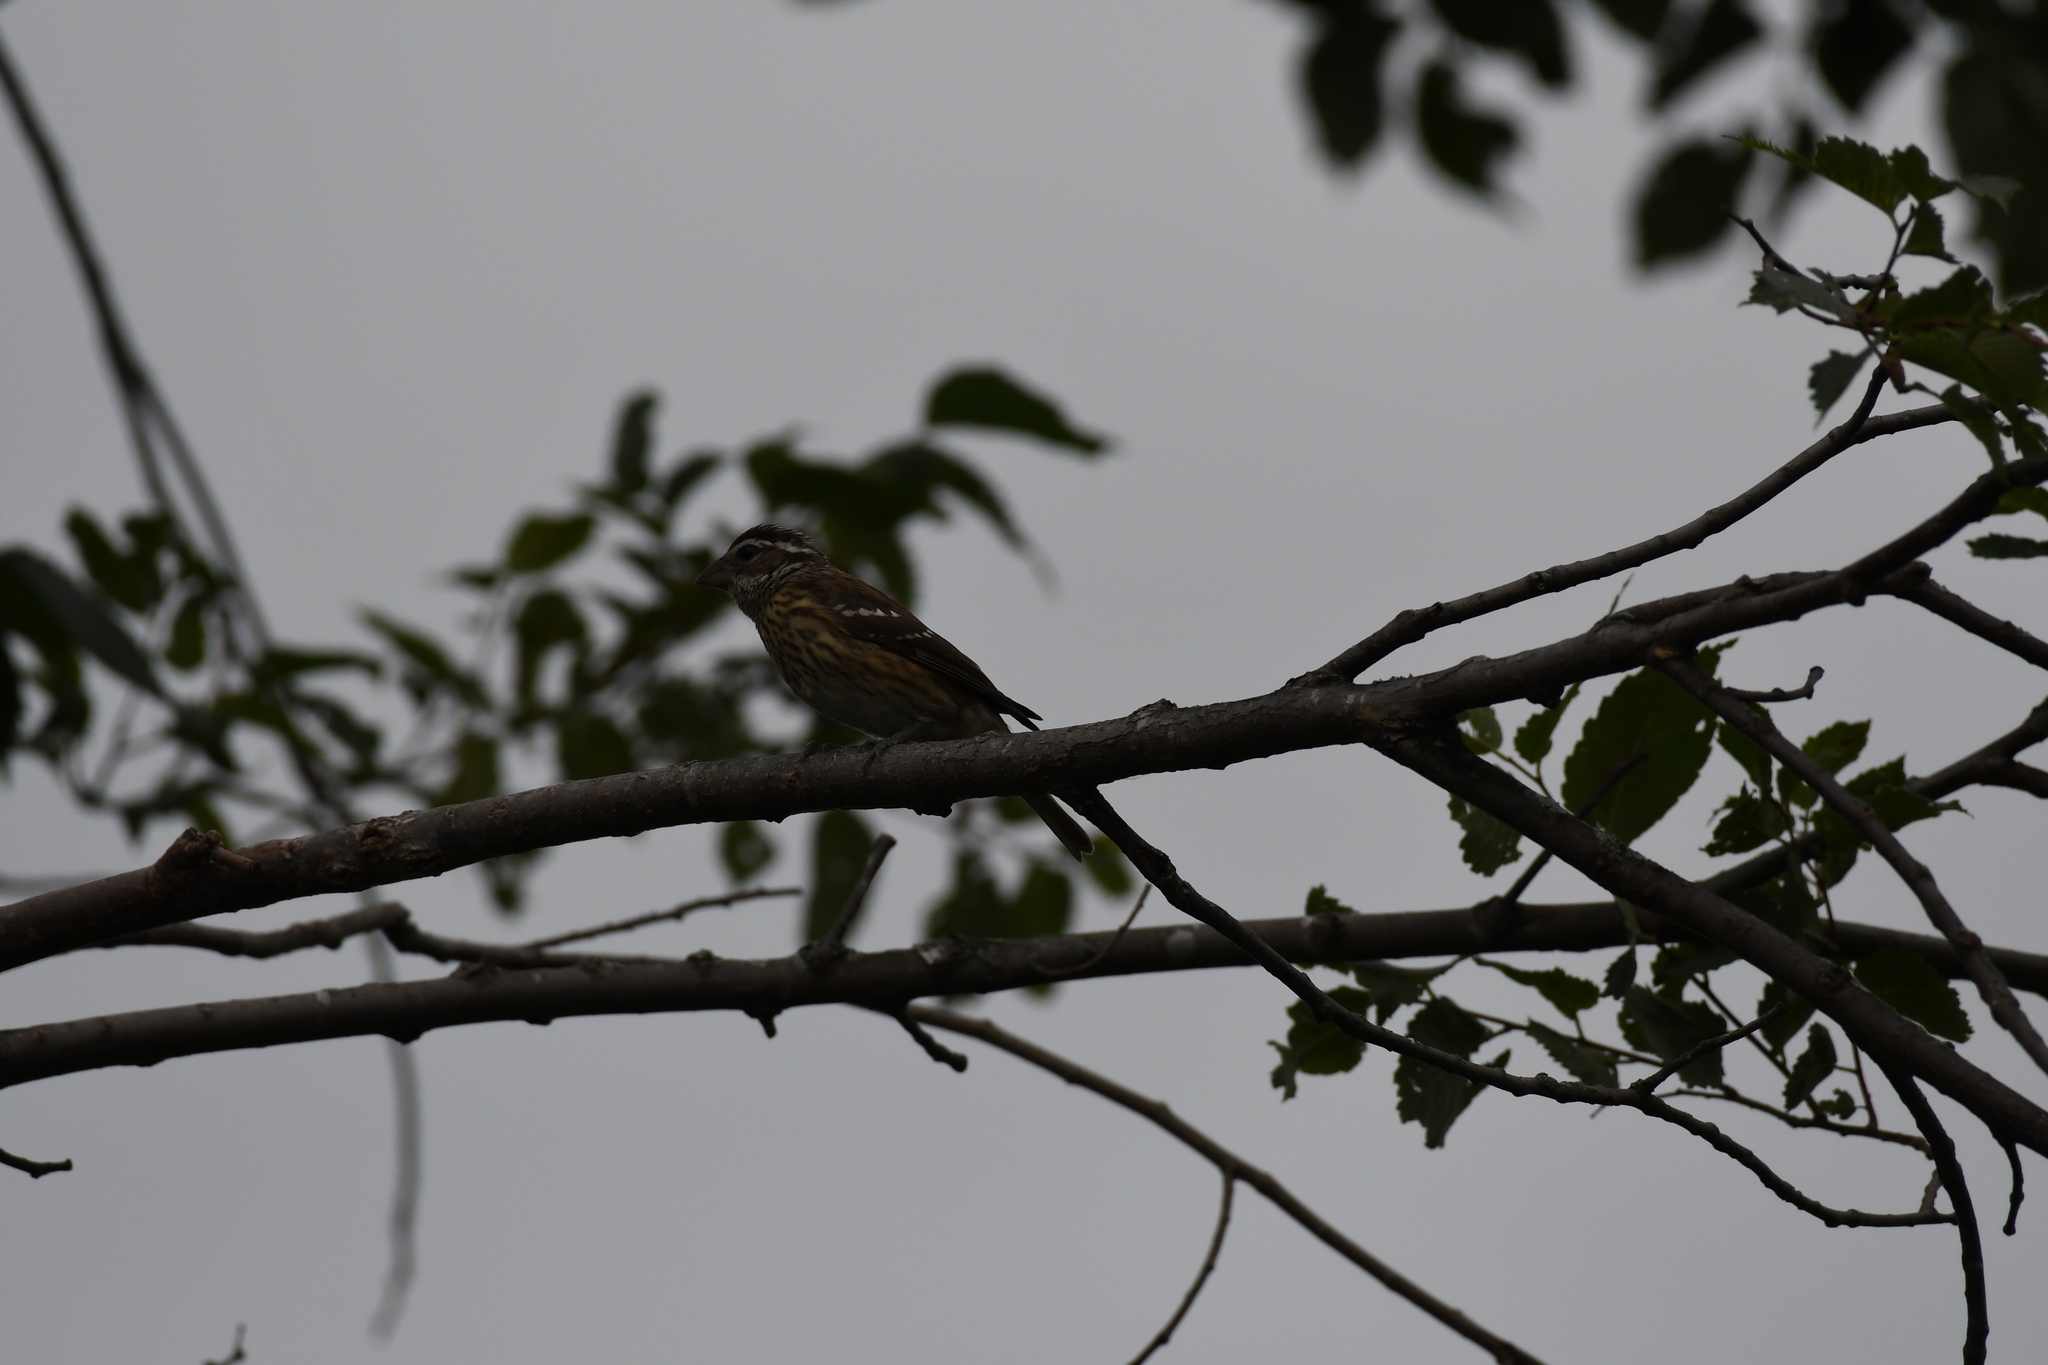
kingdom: Animalia
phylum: Chordata
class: Aves
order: Passeriformes
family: Cardinalidae
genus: Pheucticus
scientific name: Pheucticus ludovicianus
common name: Rose-breasted grosbeak
